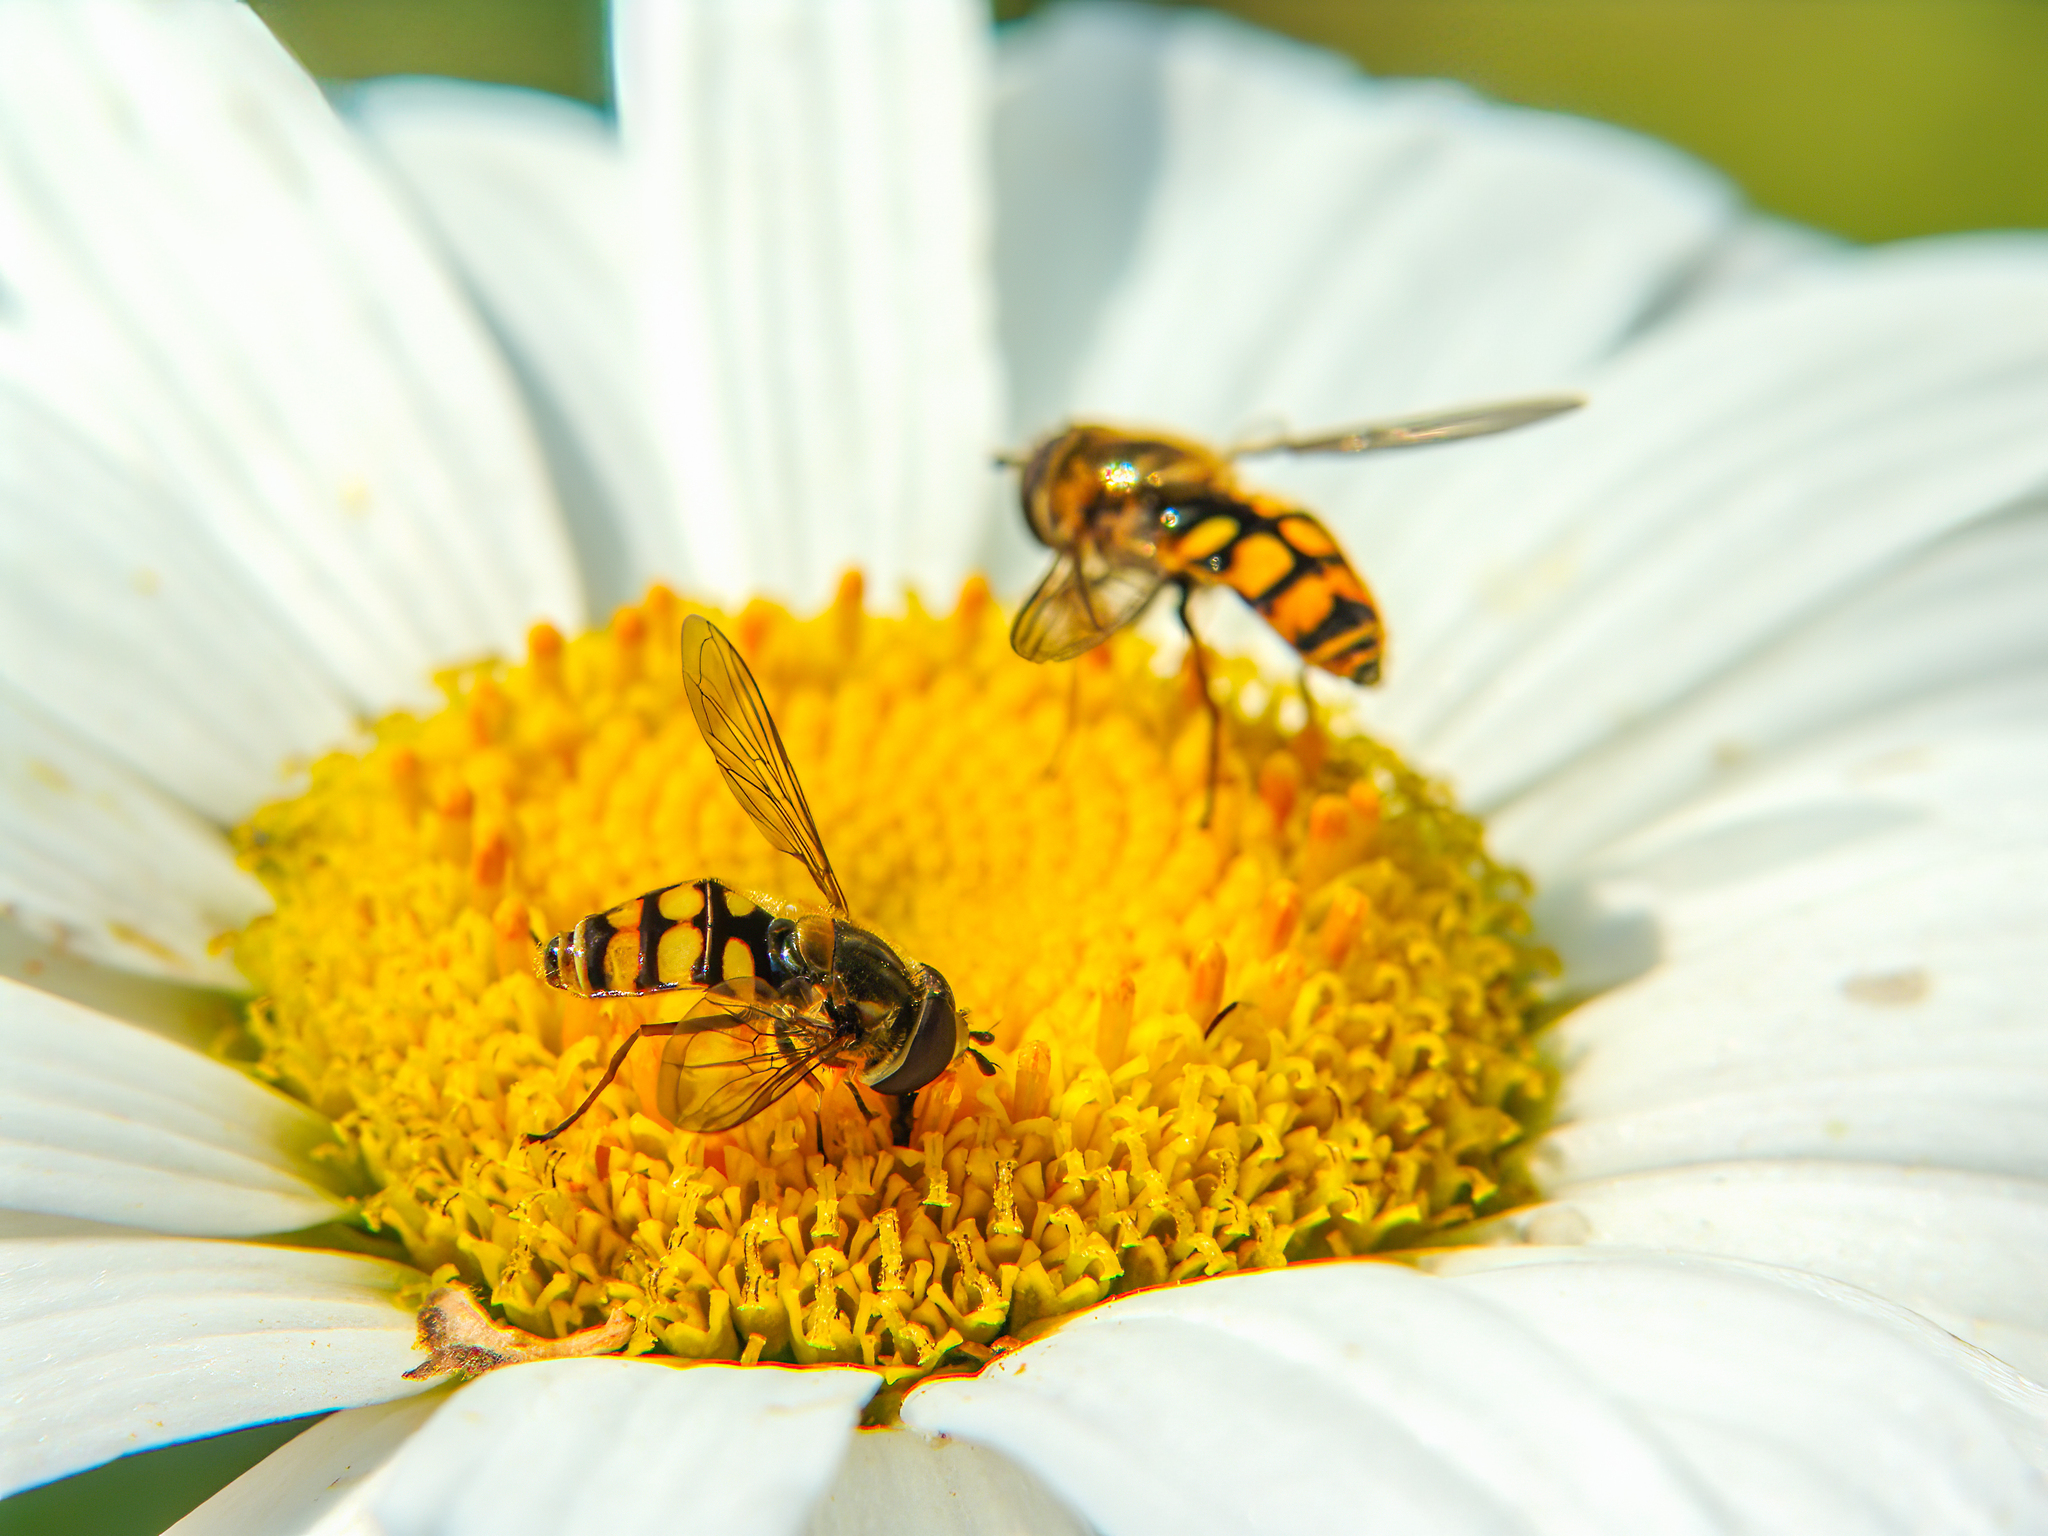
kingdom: Animalia
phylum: Arthropoda
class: Insecta
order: Diptera
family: Syrphidae
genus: Eupeodes
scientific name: Eupeodes corollae
